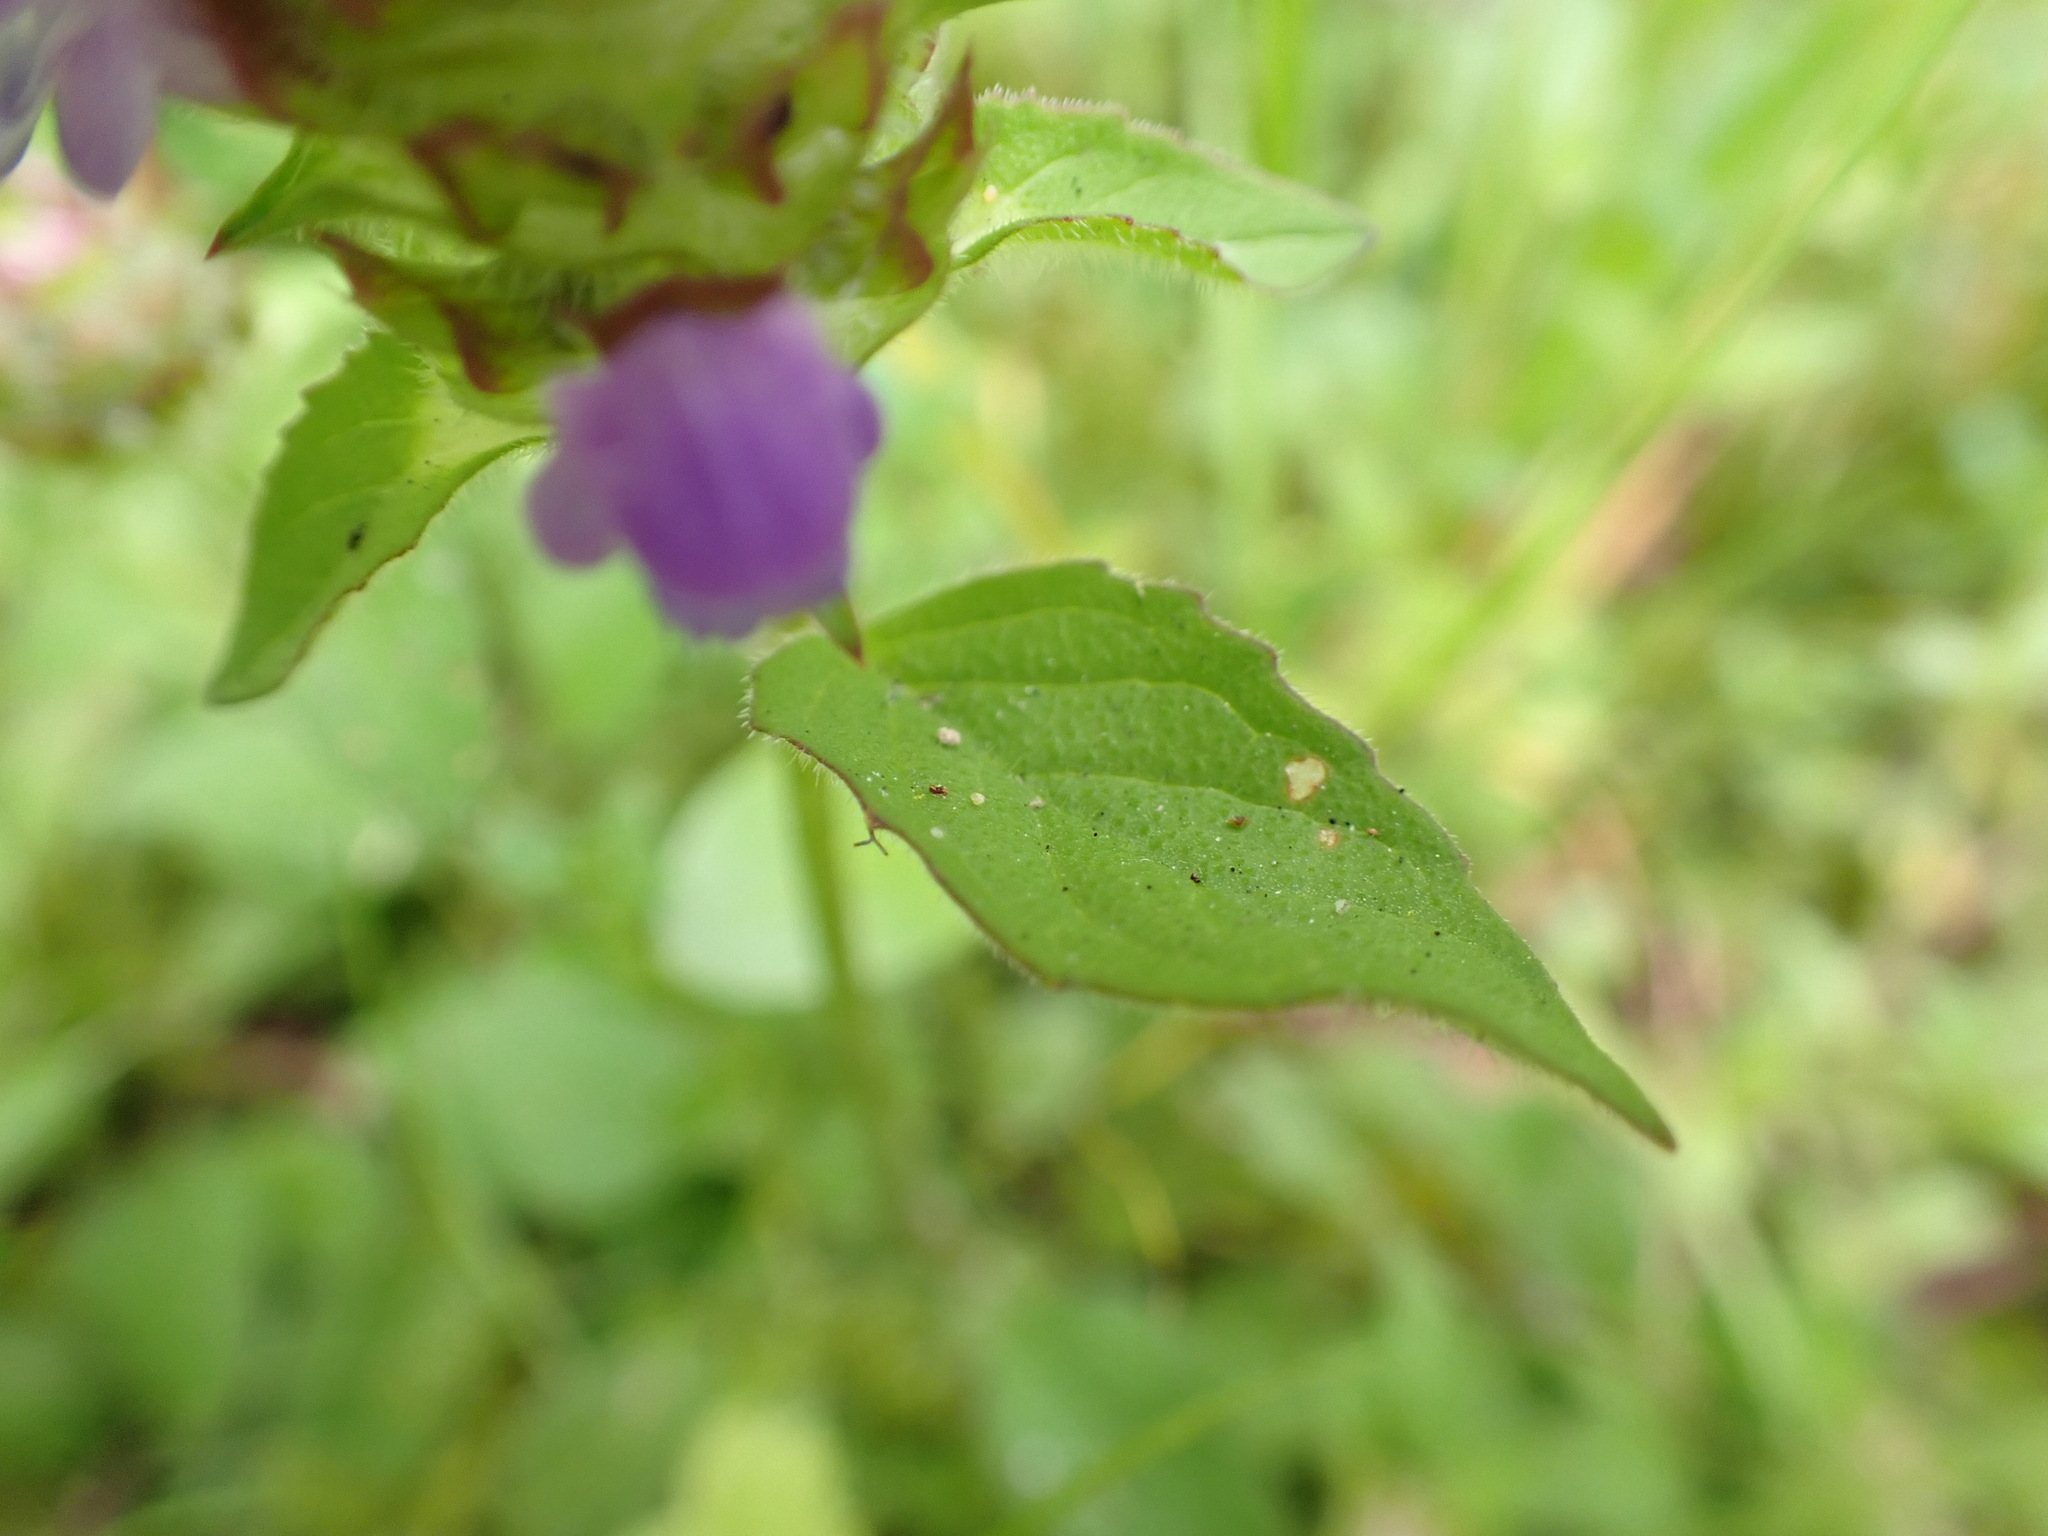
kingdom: Plantae
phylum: Tracheophyta
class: Magnoliopsida
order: Lamiales
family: Lamiaceae
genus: Prunella
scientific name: Prunella vulgaris
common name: Heal-all
